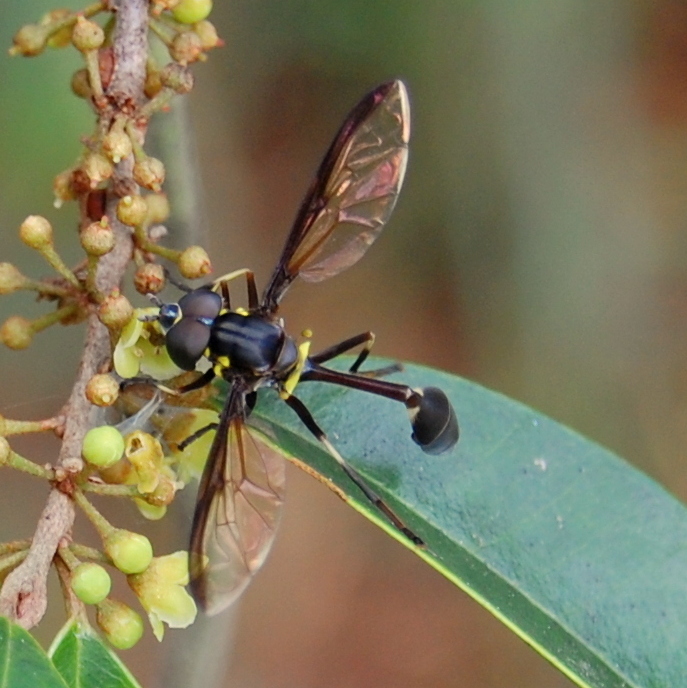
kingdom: Animalia
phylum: Arthropoda
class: Insecta
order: Diptera
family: Syrphidae
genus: Salpingogaster
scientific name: Salpingogaster nigra
